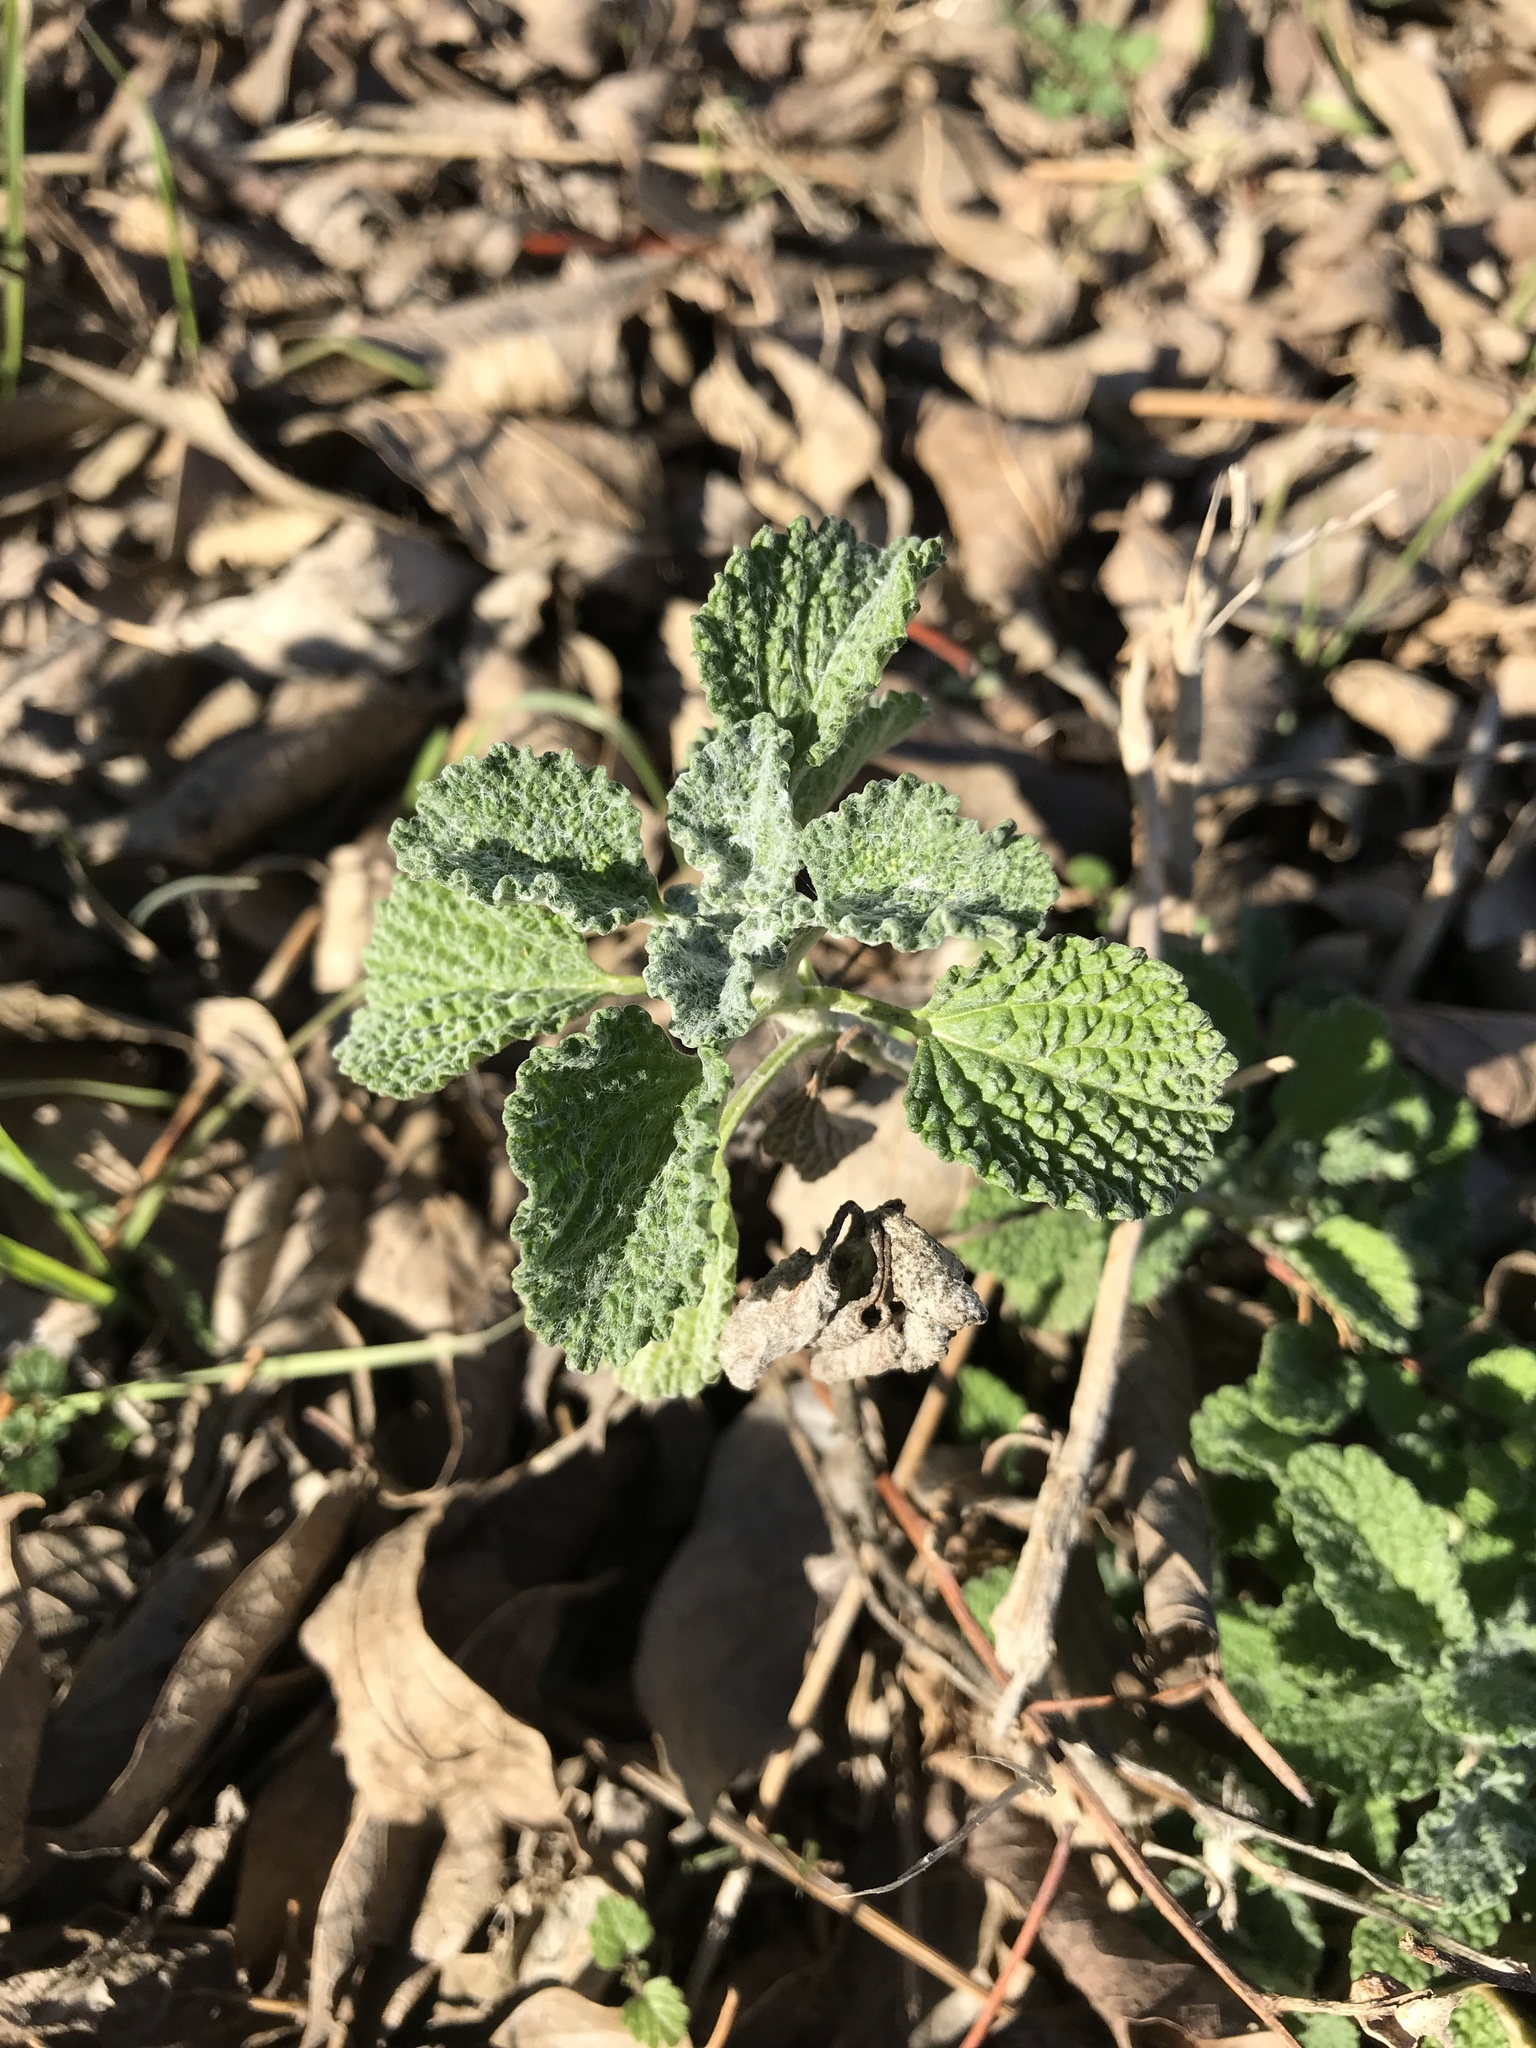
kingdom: Plantae
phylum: Tracheophyta
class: Magnoliopsida
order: Lamiales
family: Lamiaceae
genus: Marrubium
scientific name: Marrubium vulgare
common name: Horehound
